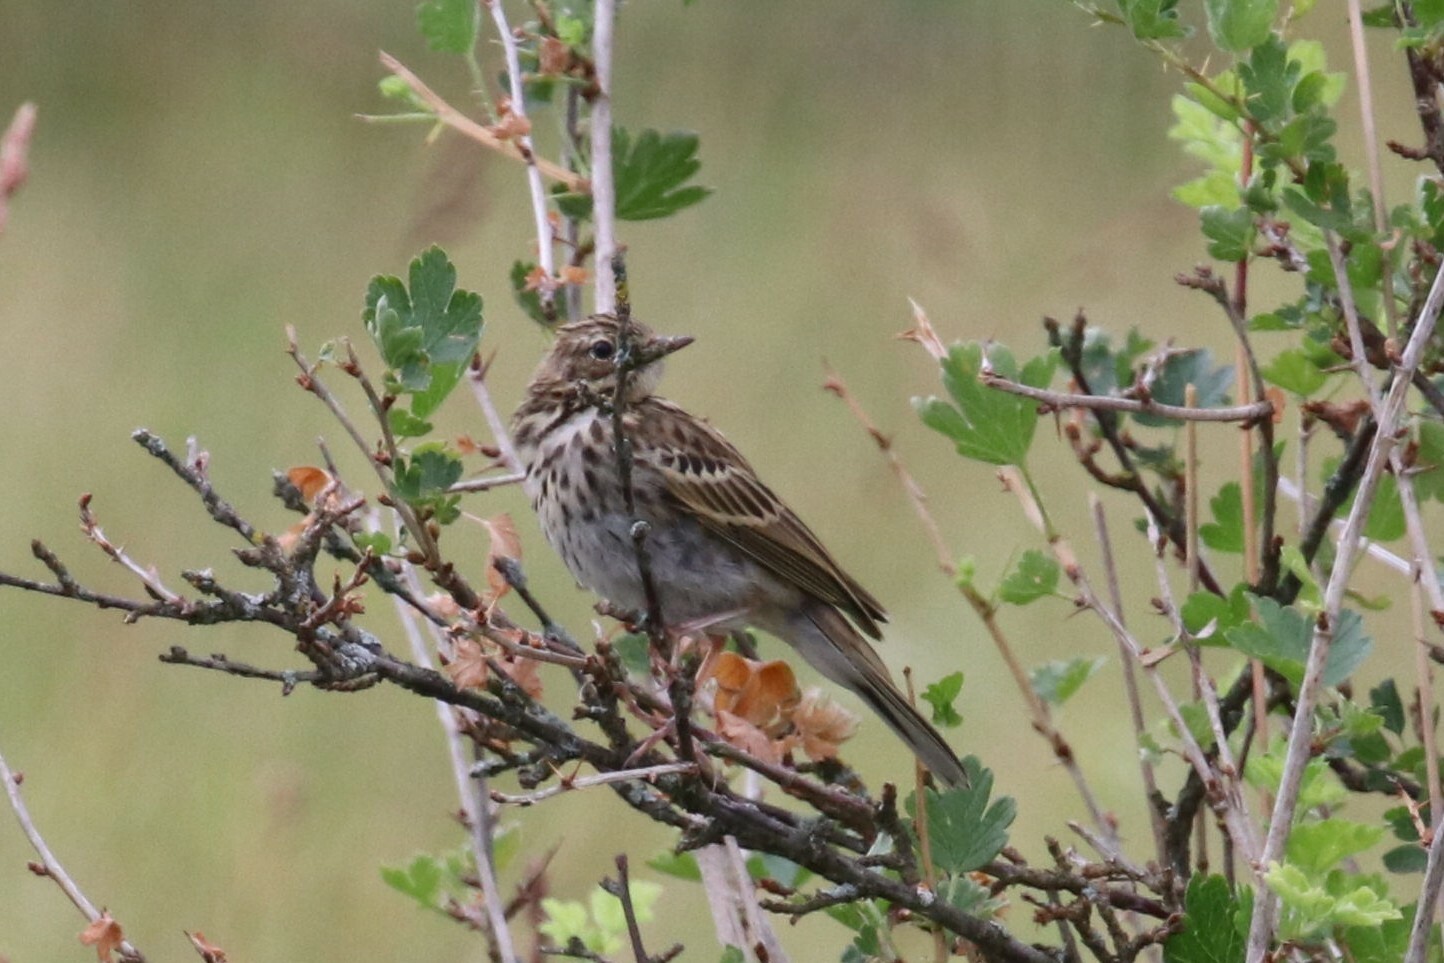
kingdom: Animalia
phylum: Chordata
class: Aves
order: Passeriformes
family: Motacillidae
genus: Anthus
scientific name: Anthus trivialis
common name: Tree pipit
